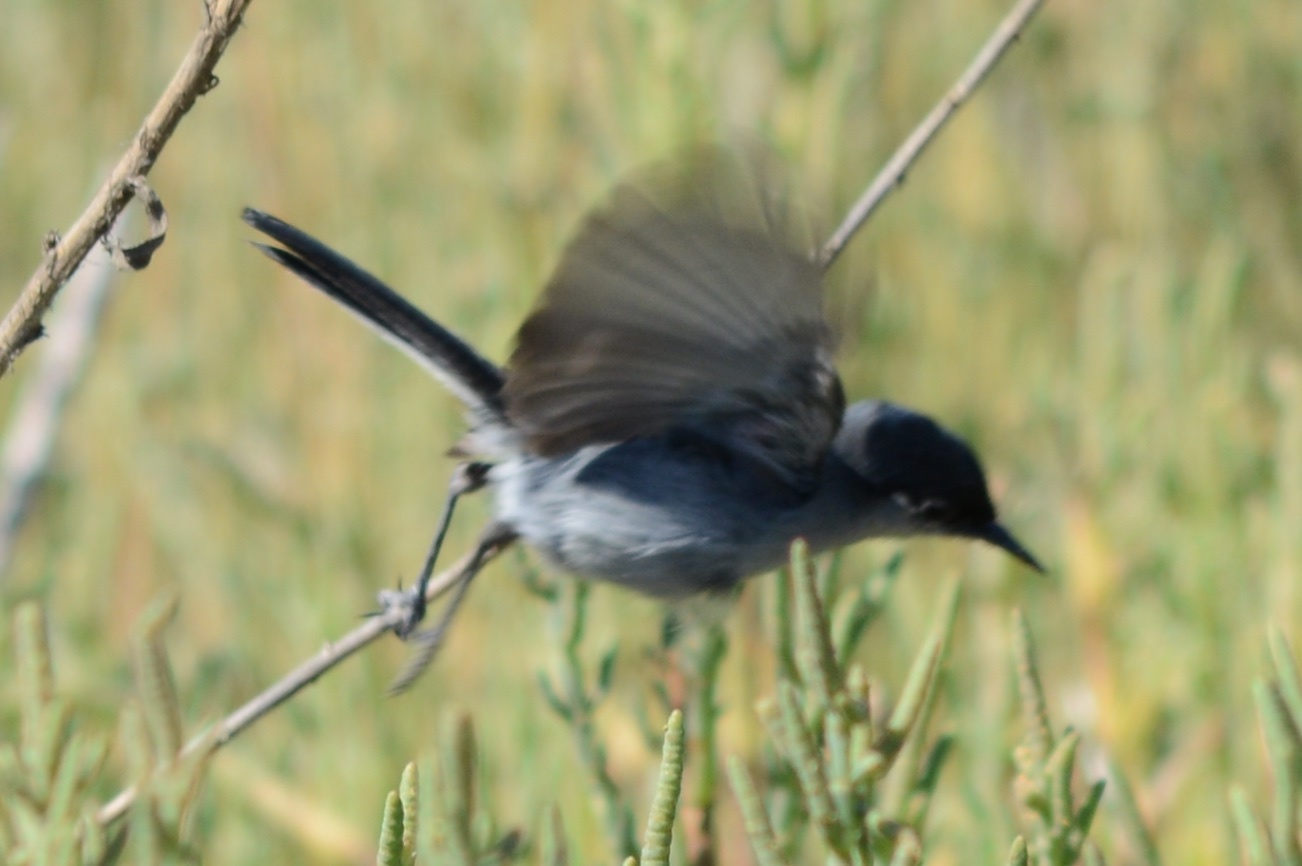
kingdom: Animalia
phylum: Chordata
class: Aves
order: Passeriformes
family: Polioptilidae
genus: Polioptila
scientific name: Polioptila californica
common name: California gnatcatcher
